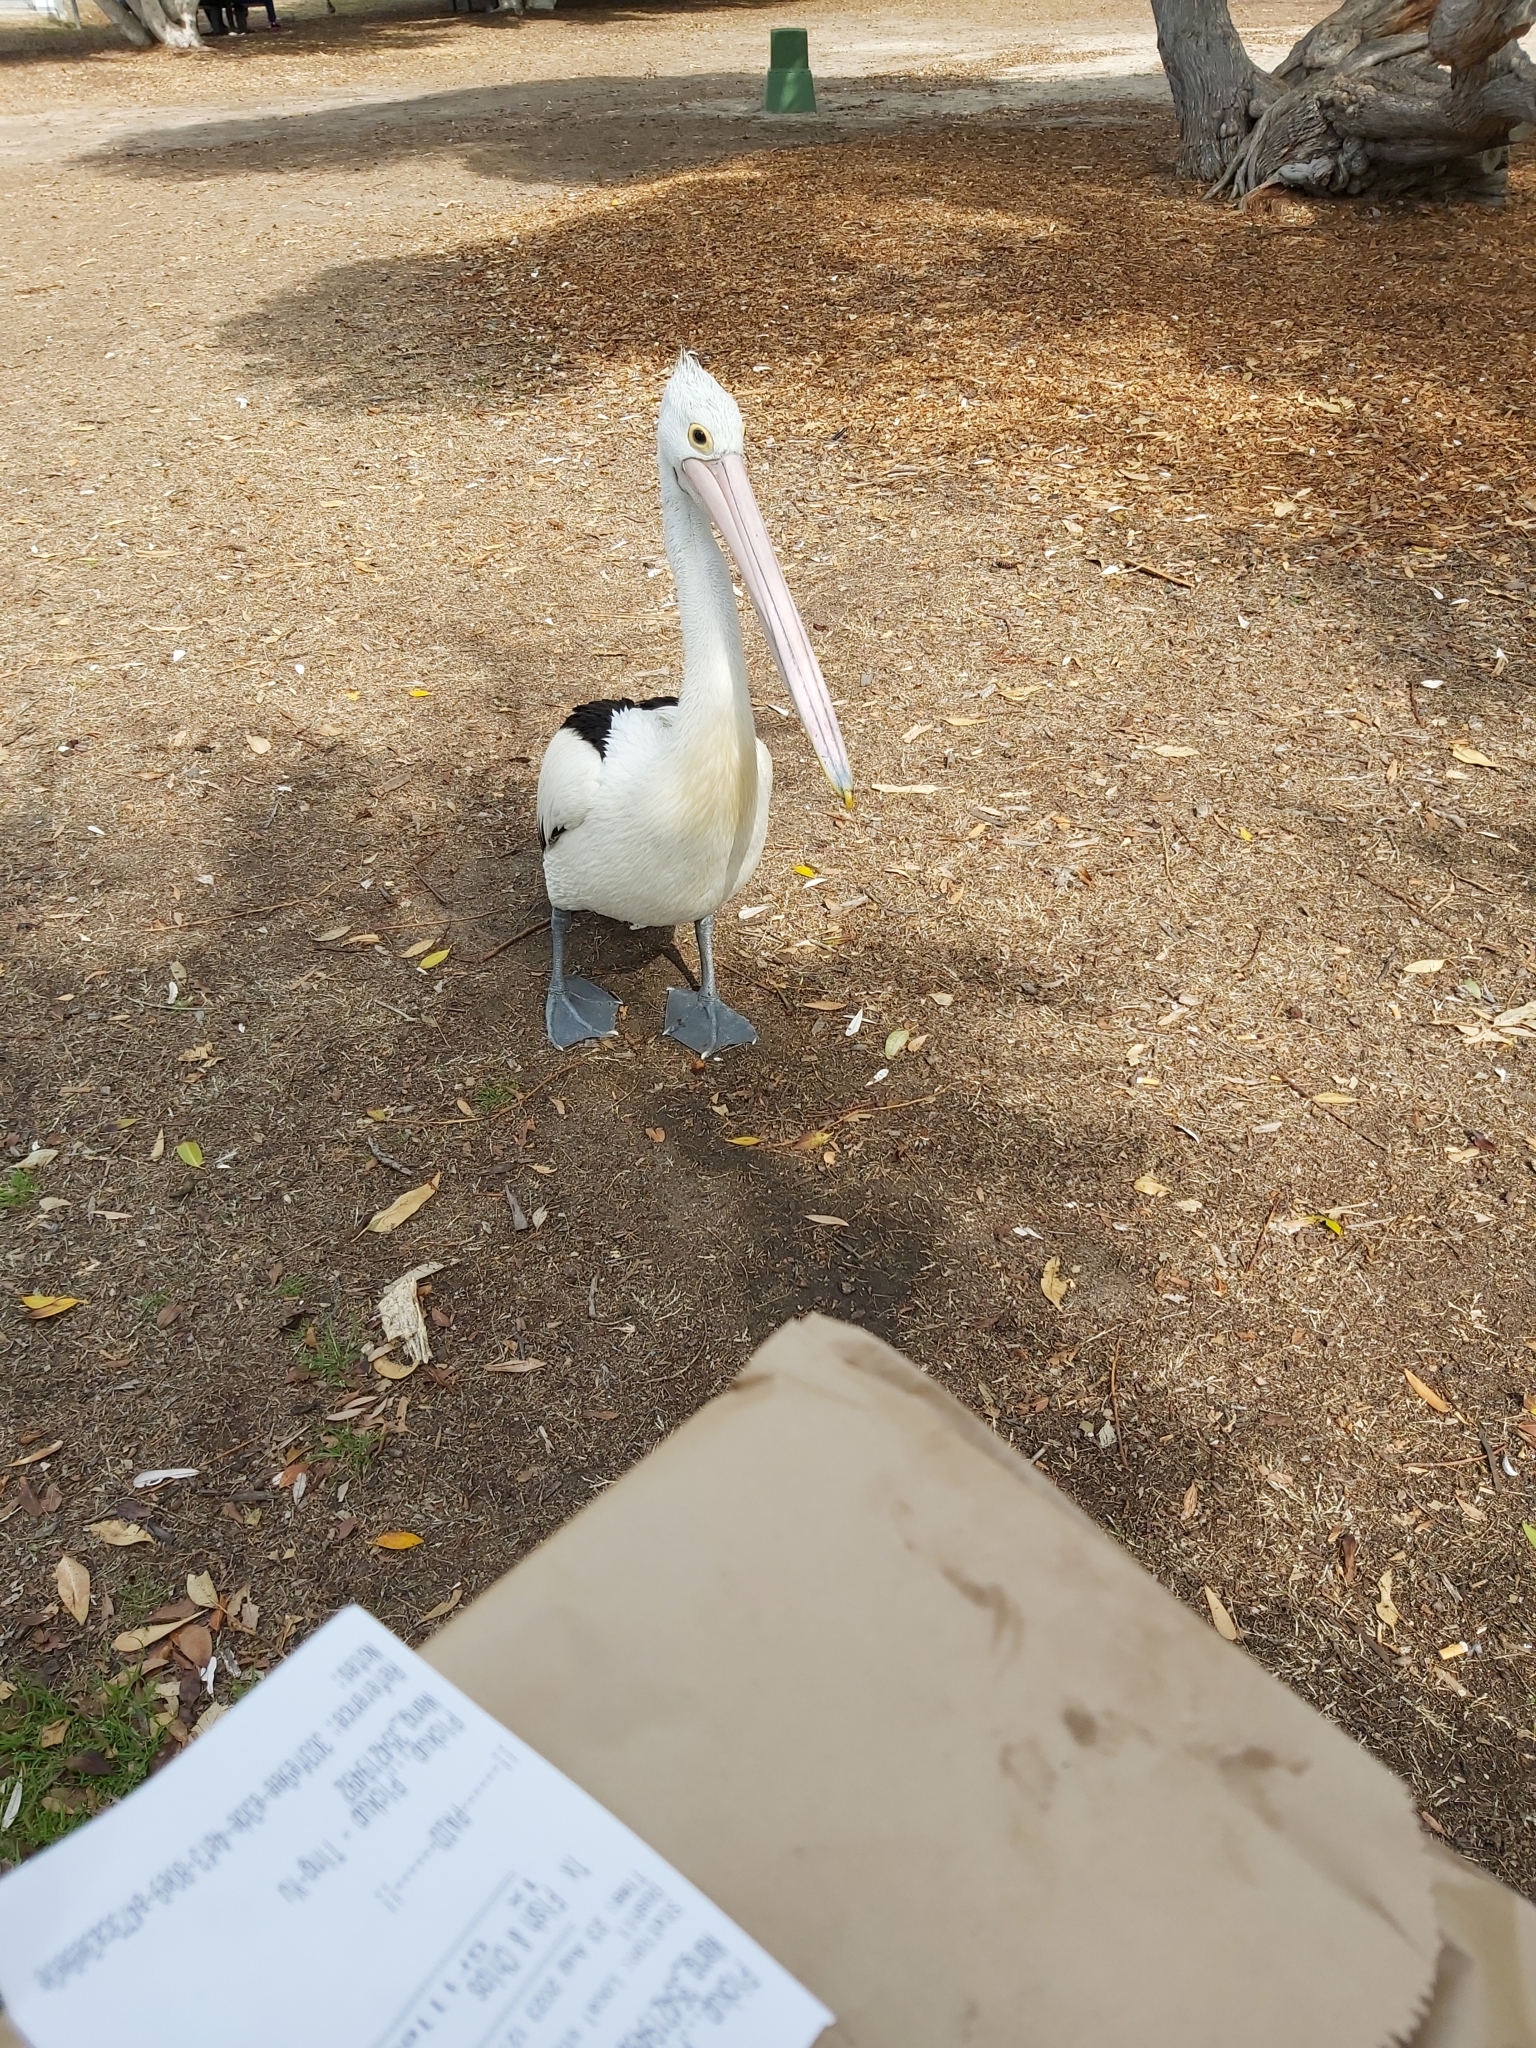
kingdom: Animalia
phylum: Chordata
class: Aves
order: Pelecaniformes
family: Pelecanidae
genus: Pelecanus
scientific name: Pelecanus conspicillatus
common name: Australian pelican
